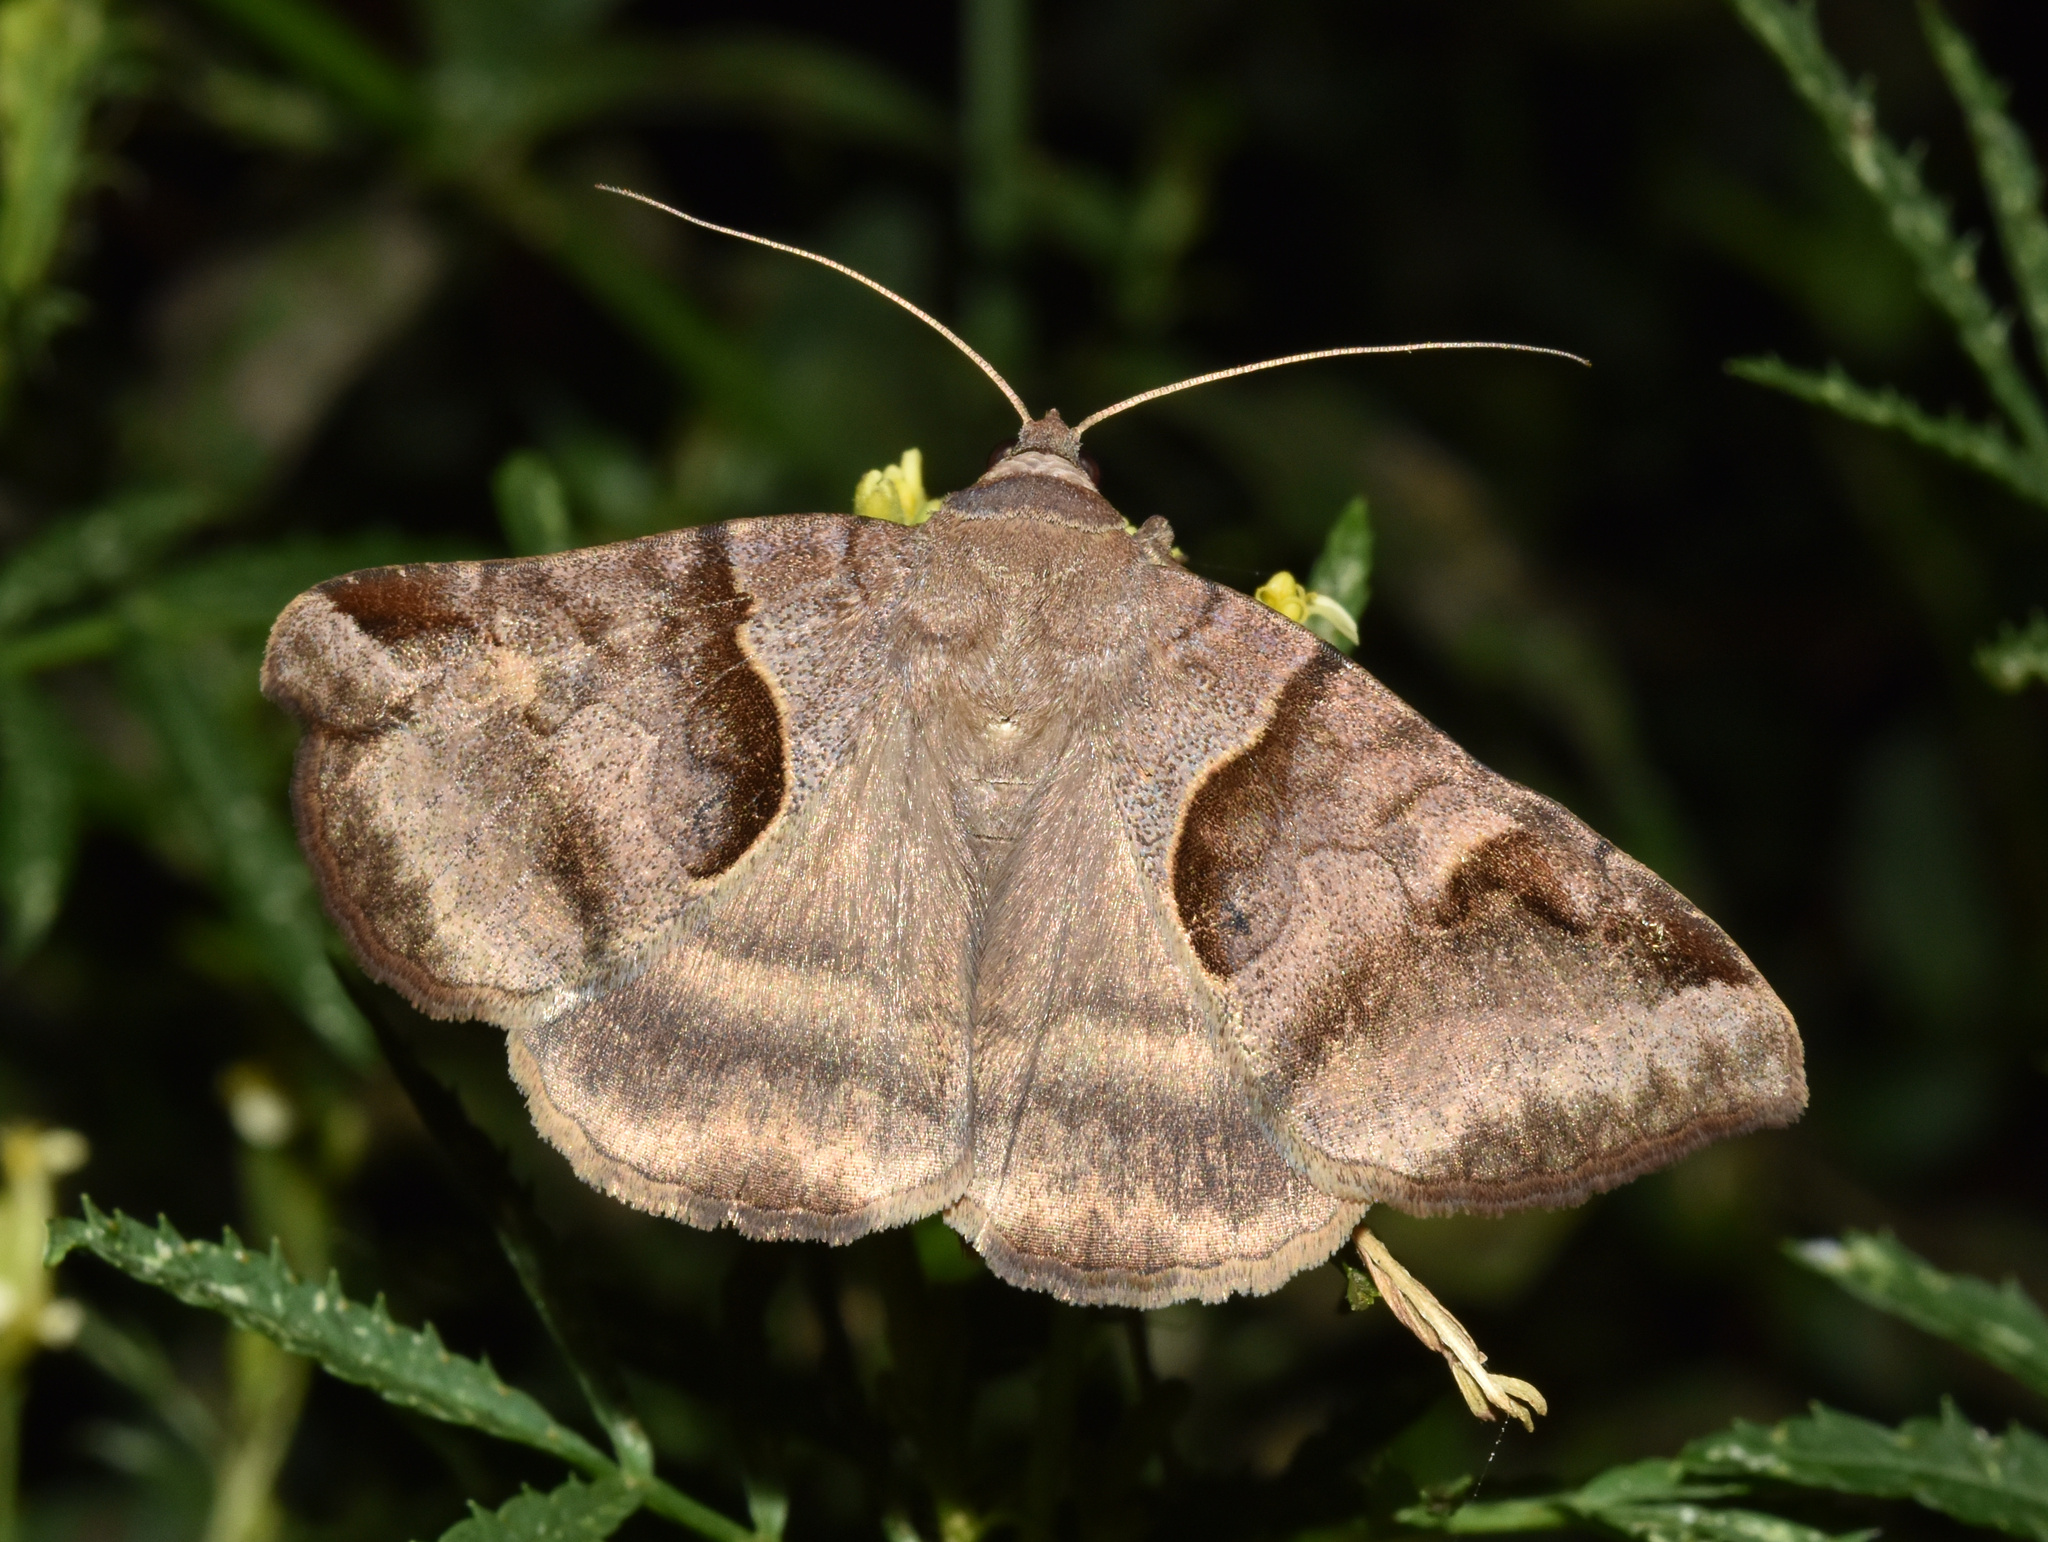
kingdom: Animalia
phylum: Arthropoda
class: Insecta
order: Lepidoptera
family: Erebidae
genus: Mocis
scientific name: Mocis mayeri
